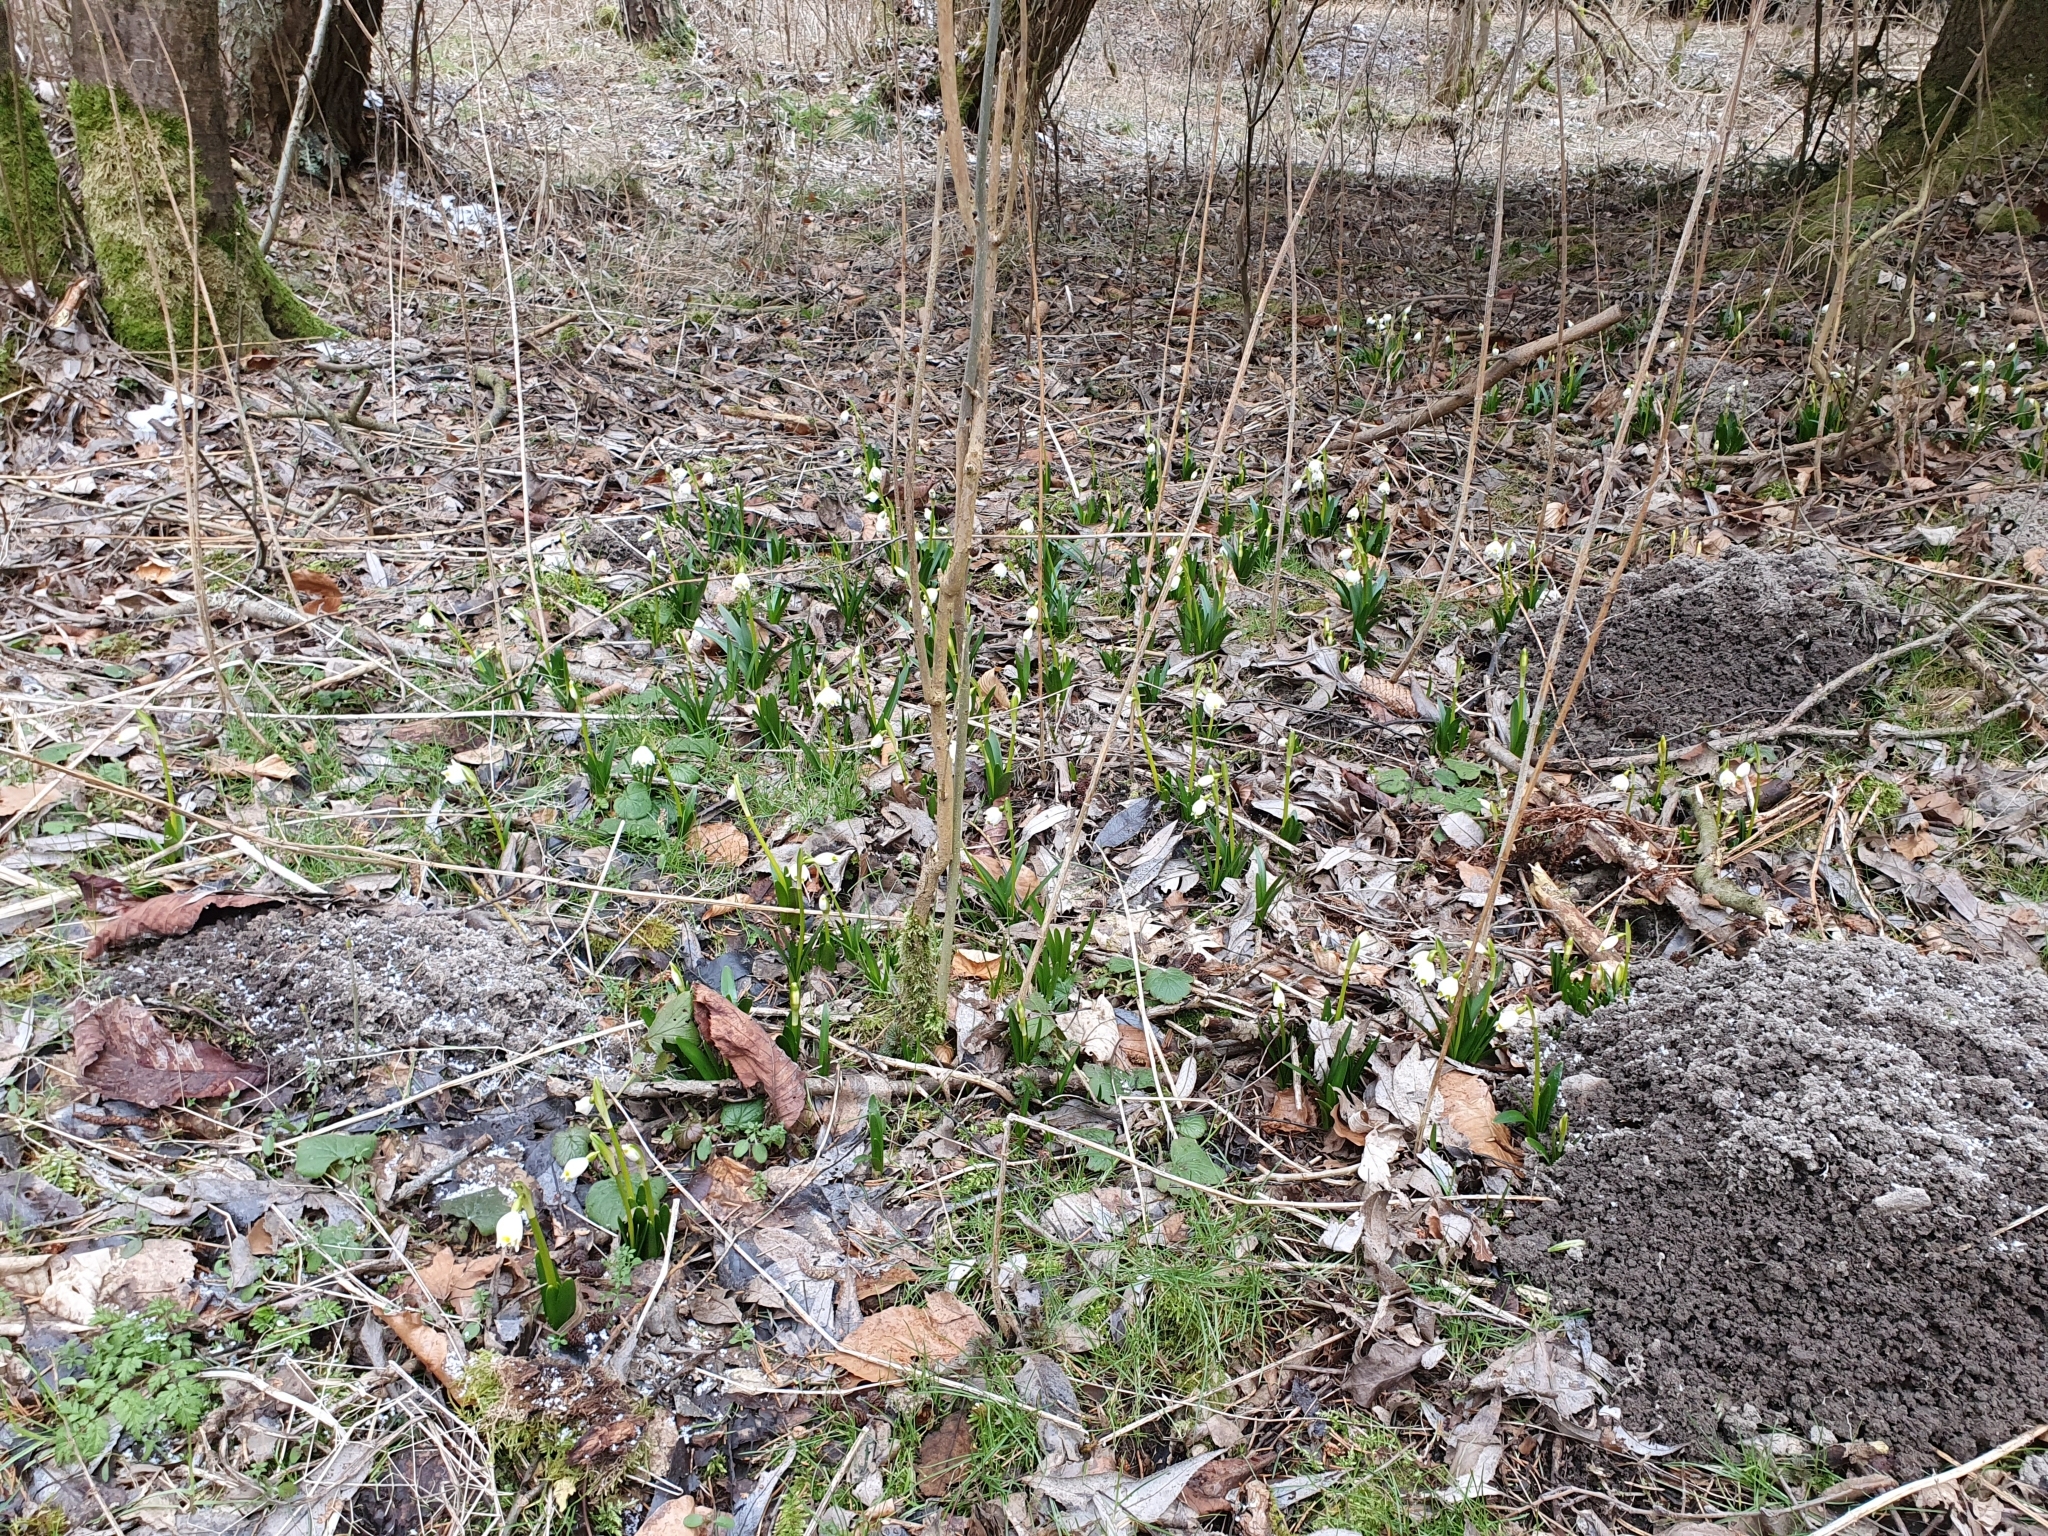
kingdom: Plantae
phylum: Tracheophyta
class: Liliopsida
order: Asparagales
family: Amaryllidaceae
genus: Leucojum
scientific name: Leucojum vernum
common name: Spring snowflake
